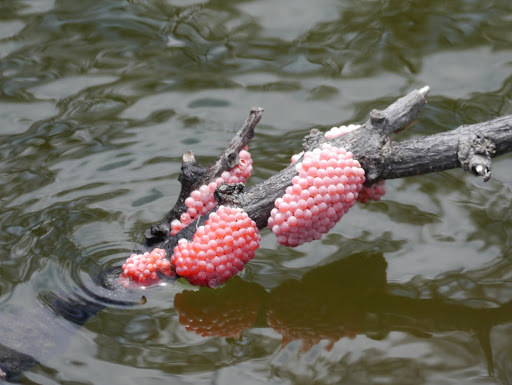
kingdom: Animalia
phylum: Mollusca
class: Gastropoda
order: Architaenioglossa
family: Ampullariidae
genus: Pomacea
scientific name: Pomacea canaliculata
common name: Channeled applesnail
